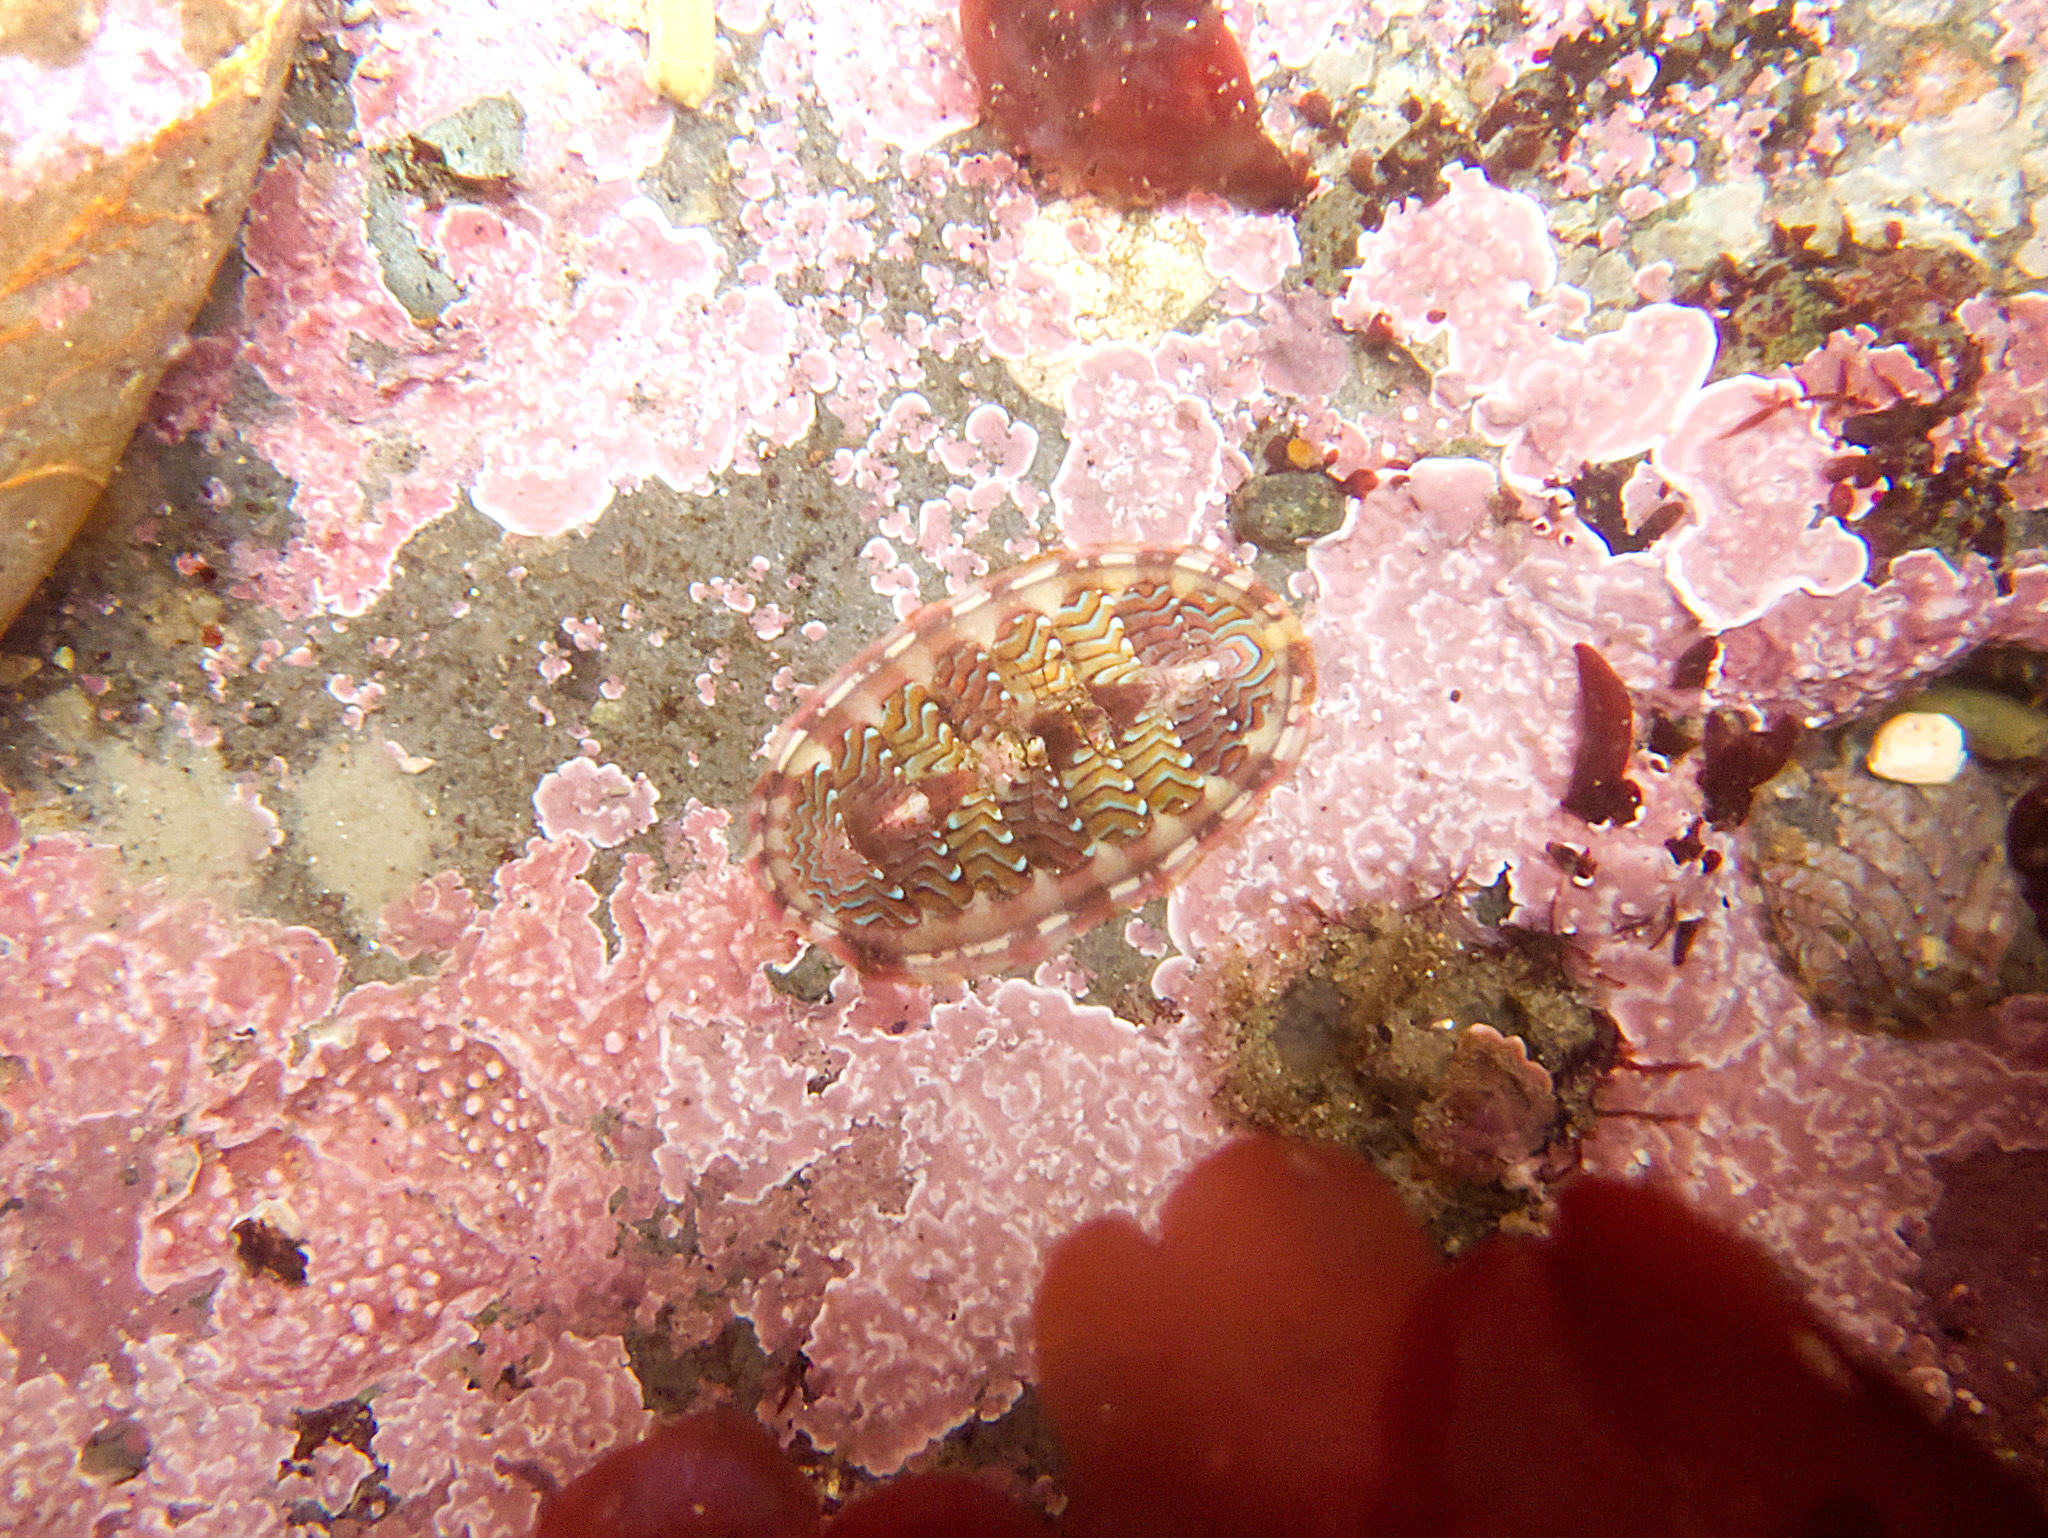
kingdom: Animalia
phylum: Mollusca
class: Polyplacophora
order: Chitonida
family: Tonicellidae
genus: Tonicella
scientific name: Tonicella lokii
